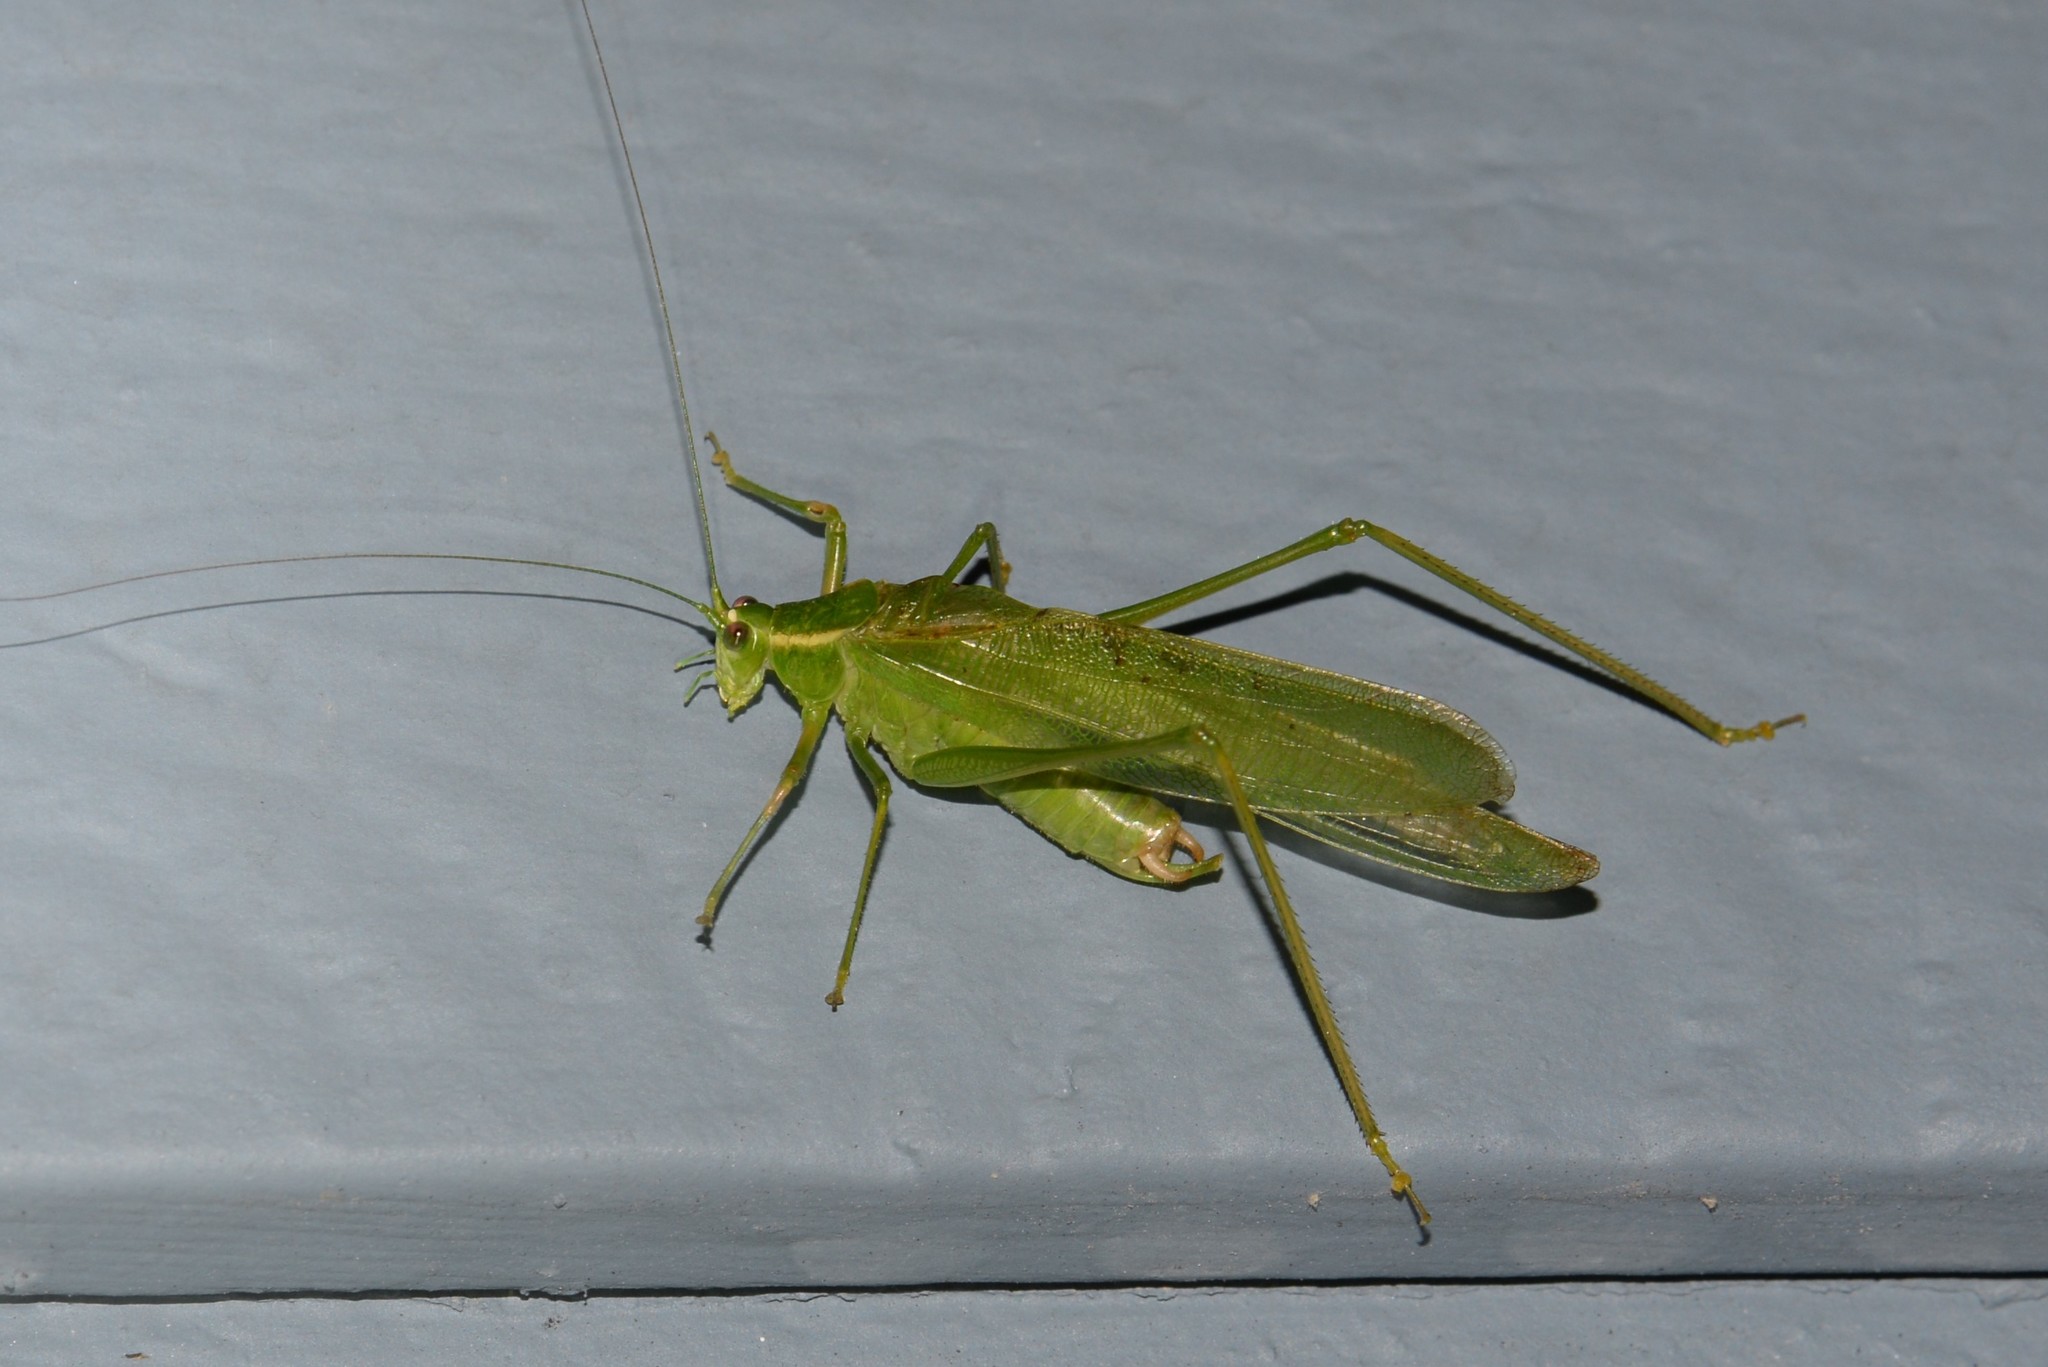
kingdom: Animalia
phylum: Arthropoda
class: Insecta
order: Orthoptera
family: Tettigoniidae
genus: Scudderia
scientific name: Scudderia septentrionalis
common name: Northern bush-katydid
